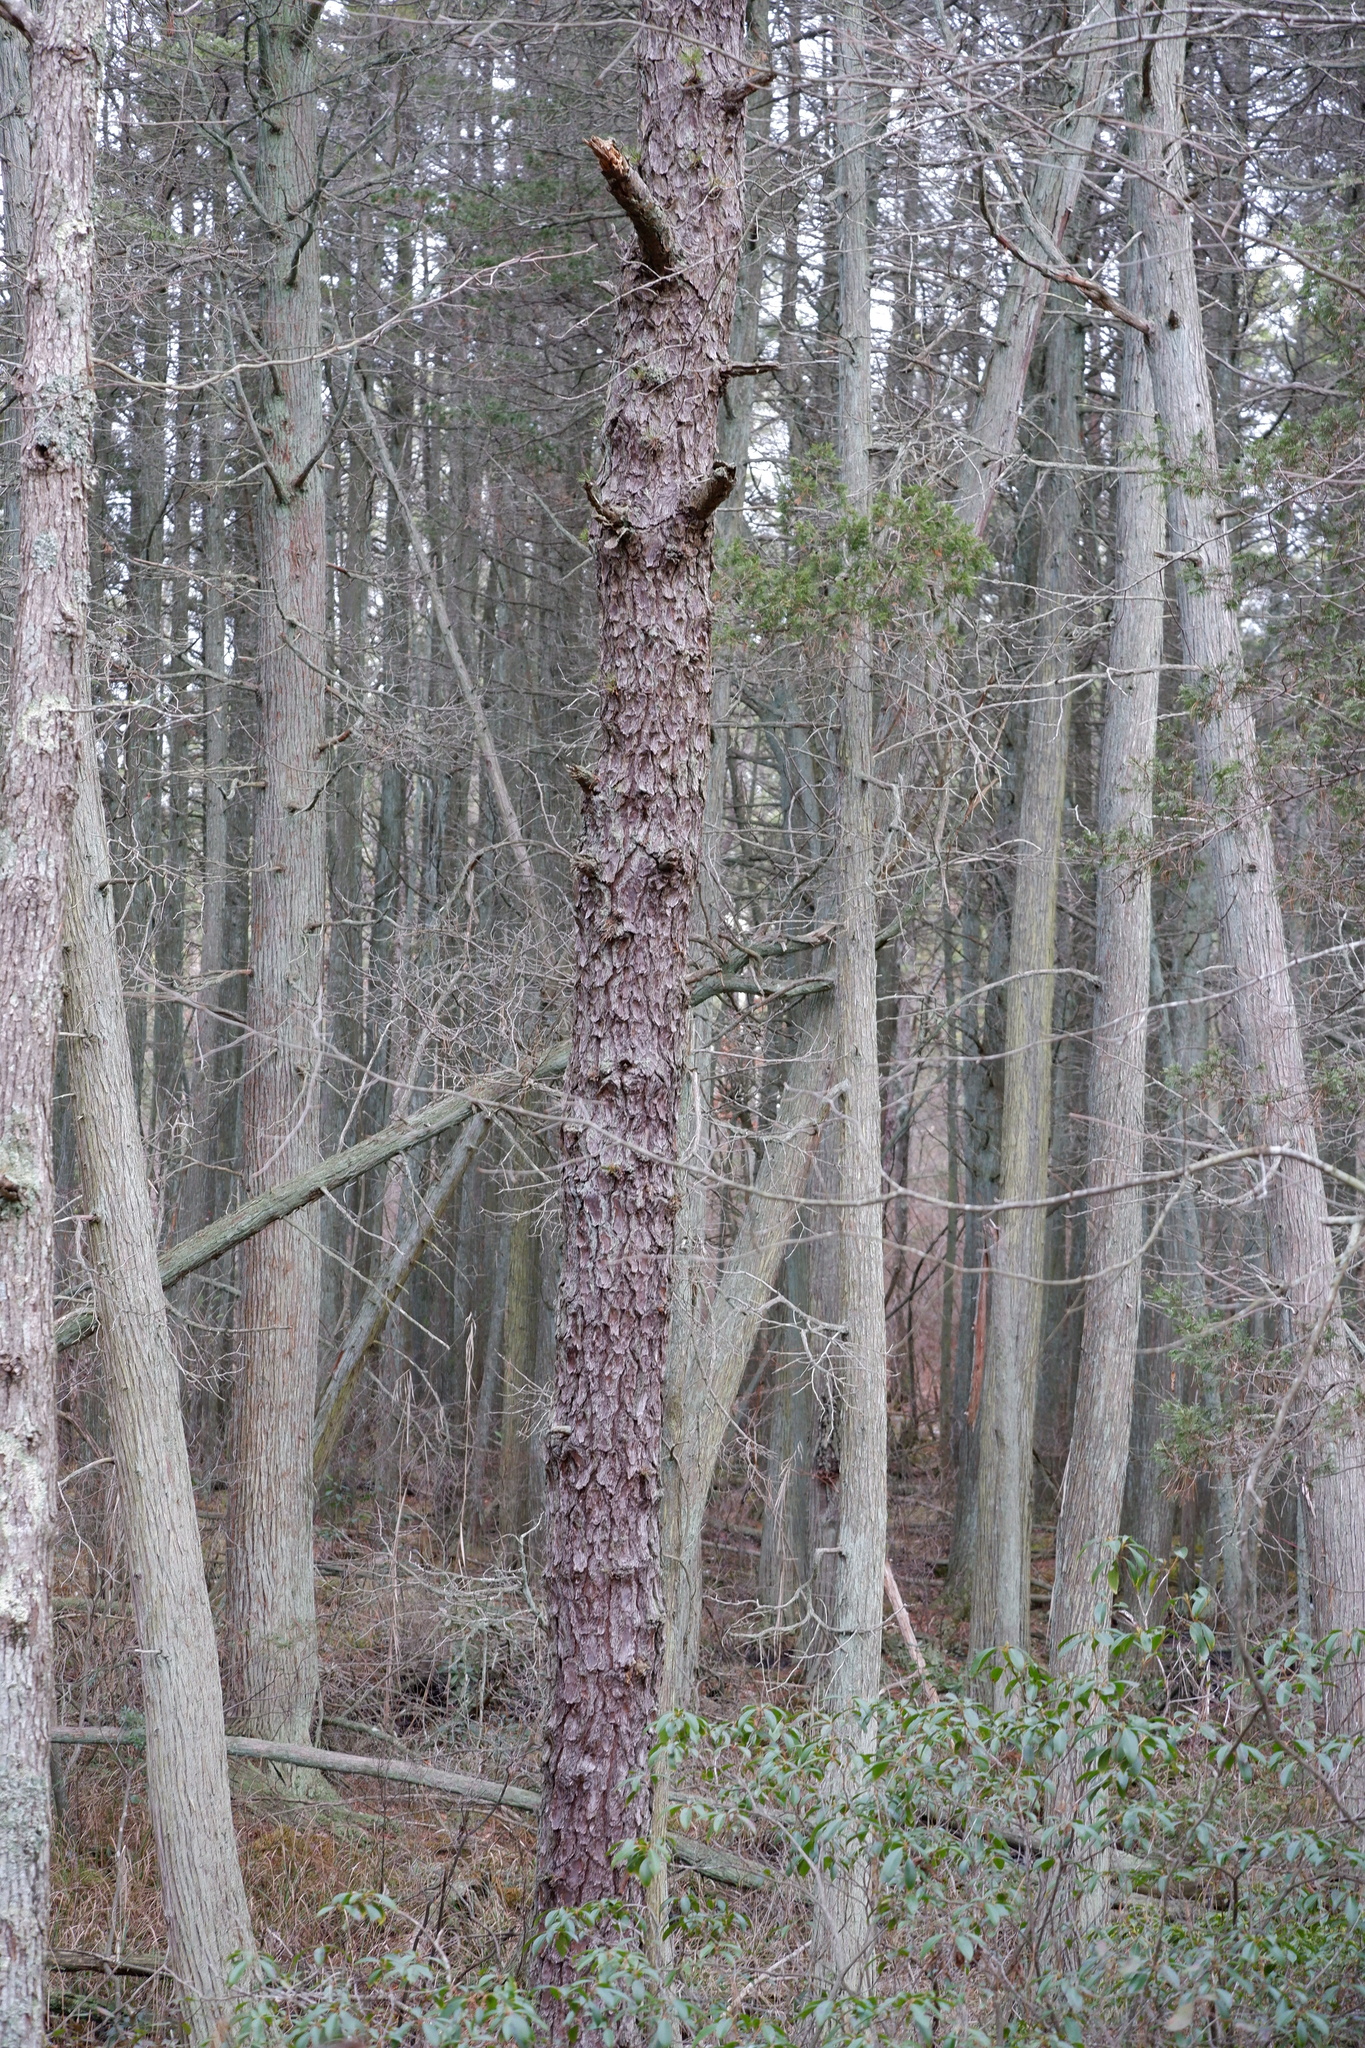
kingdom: Plantae
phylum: Tracheophyta
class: Pinopsida
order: Pinales
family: Pinaceae
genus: Pinus
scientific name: Pinus serotina
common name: Marsh pine
